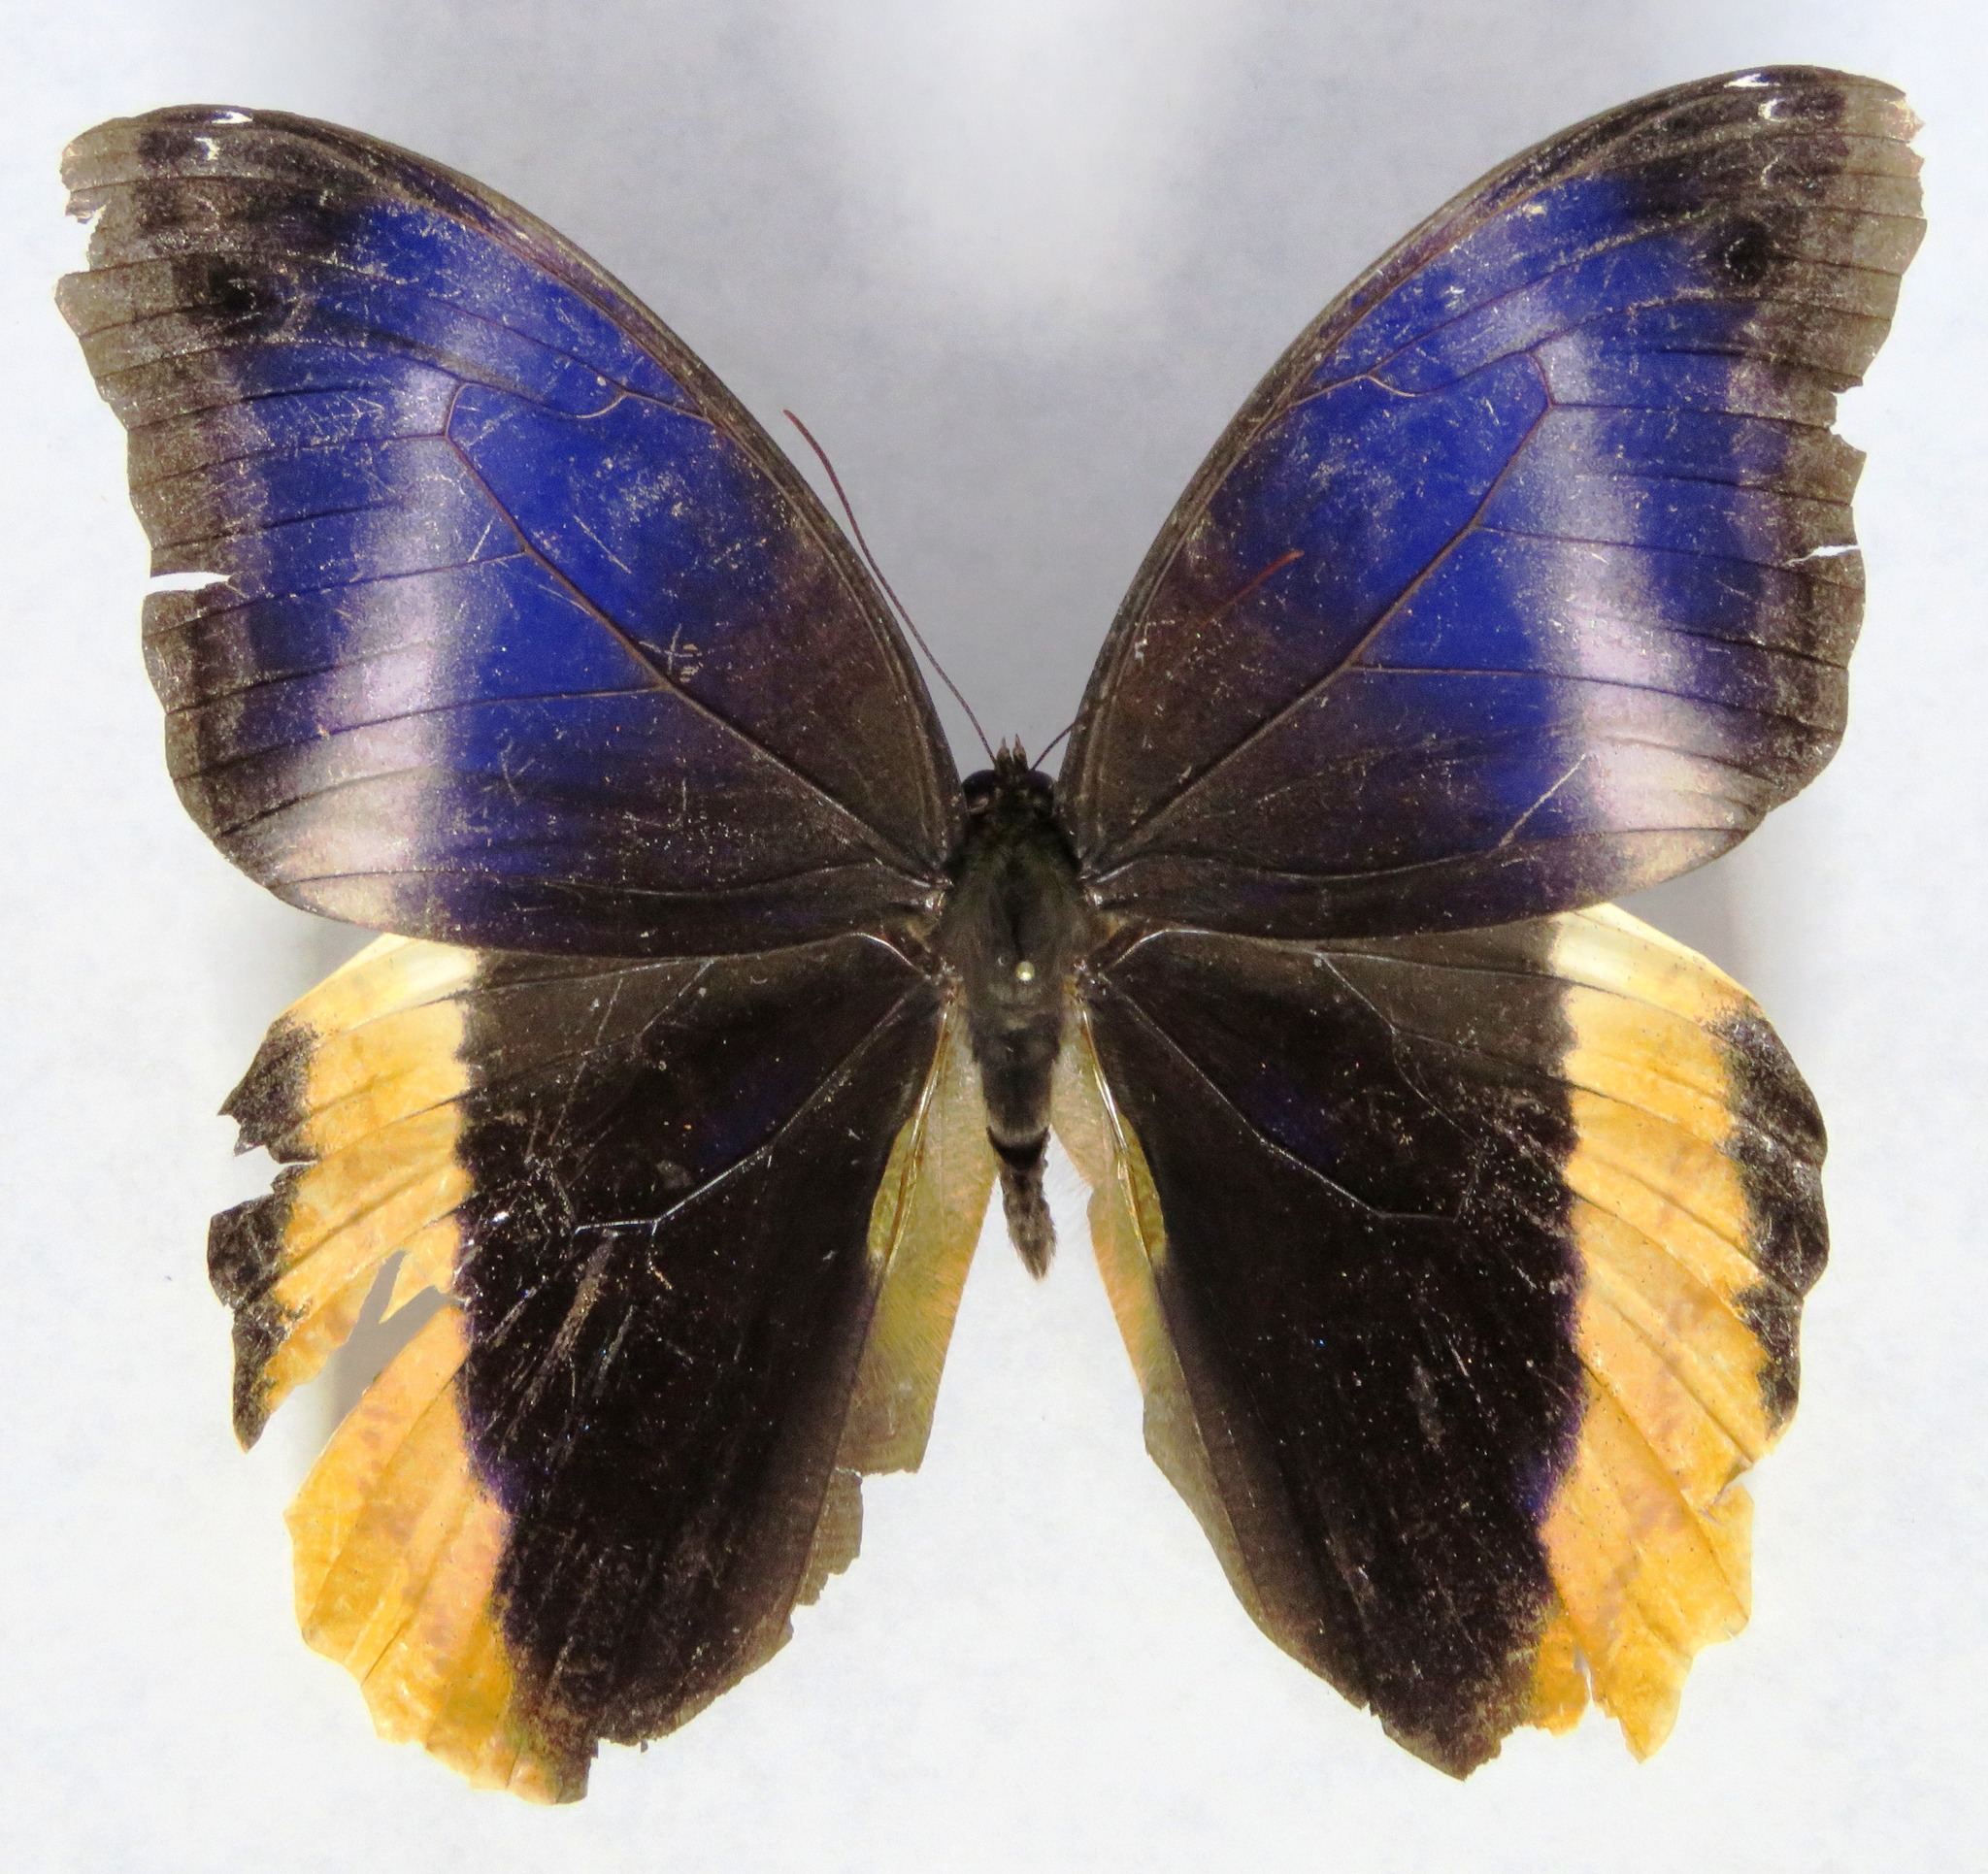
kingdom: Animalia
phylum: Arthropoda
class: Insecta
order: Lepidoptera
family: Nymphalidae
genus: Caligo
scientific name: Caligo atreus
